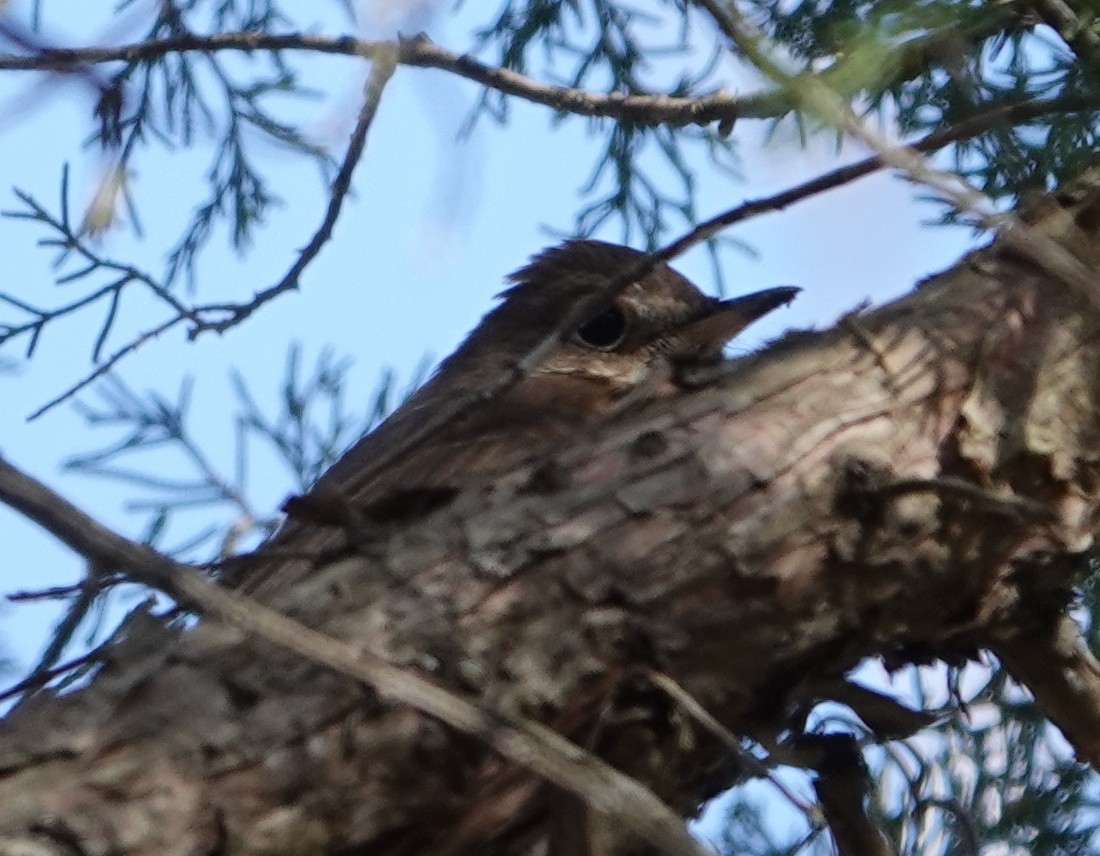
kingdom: Animalia
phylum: Chordata
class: Aves
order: Passeriformes
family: Turdidae
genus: Catharus
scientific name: Catharus guttatus
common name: Hermit thrush
